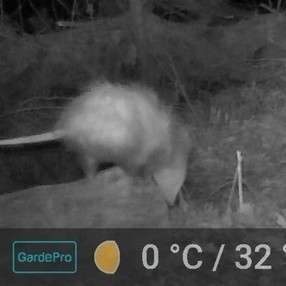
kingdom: Animalia
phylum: Chordata
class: Mammalia
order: Didelphimorphia
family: Didelphidae
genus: Didelphis
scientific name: Didelphis virginiana
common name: Virginia opossum
